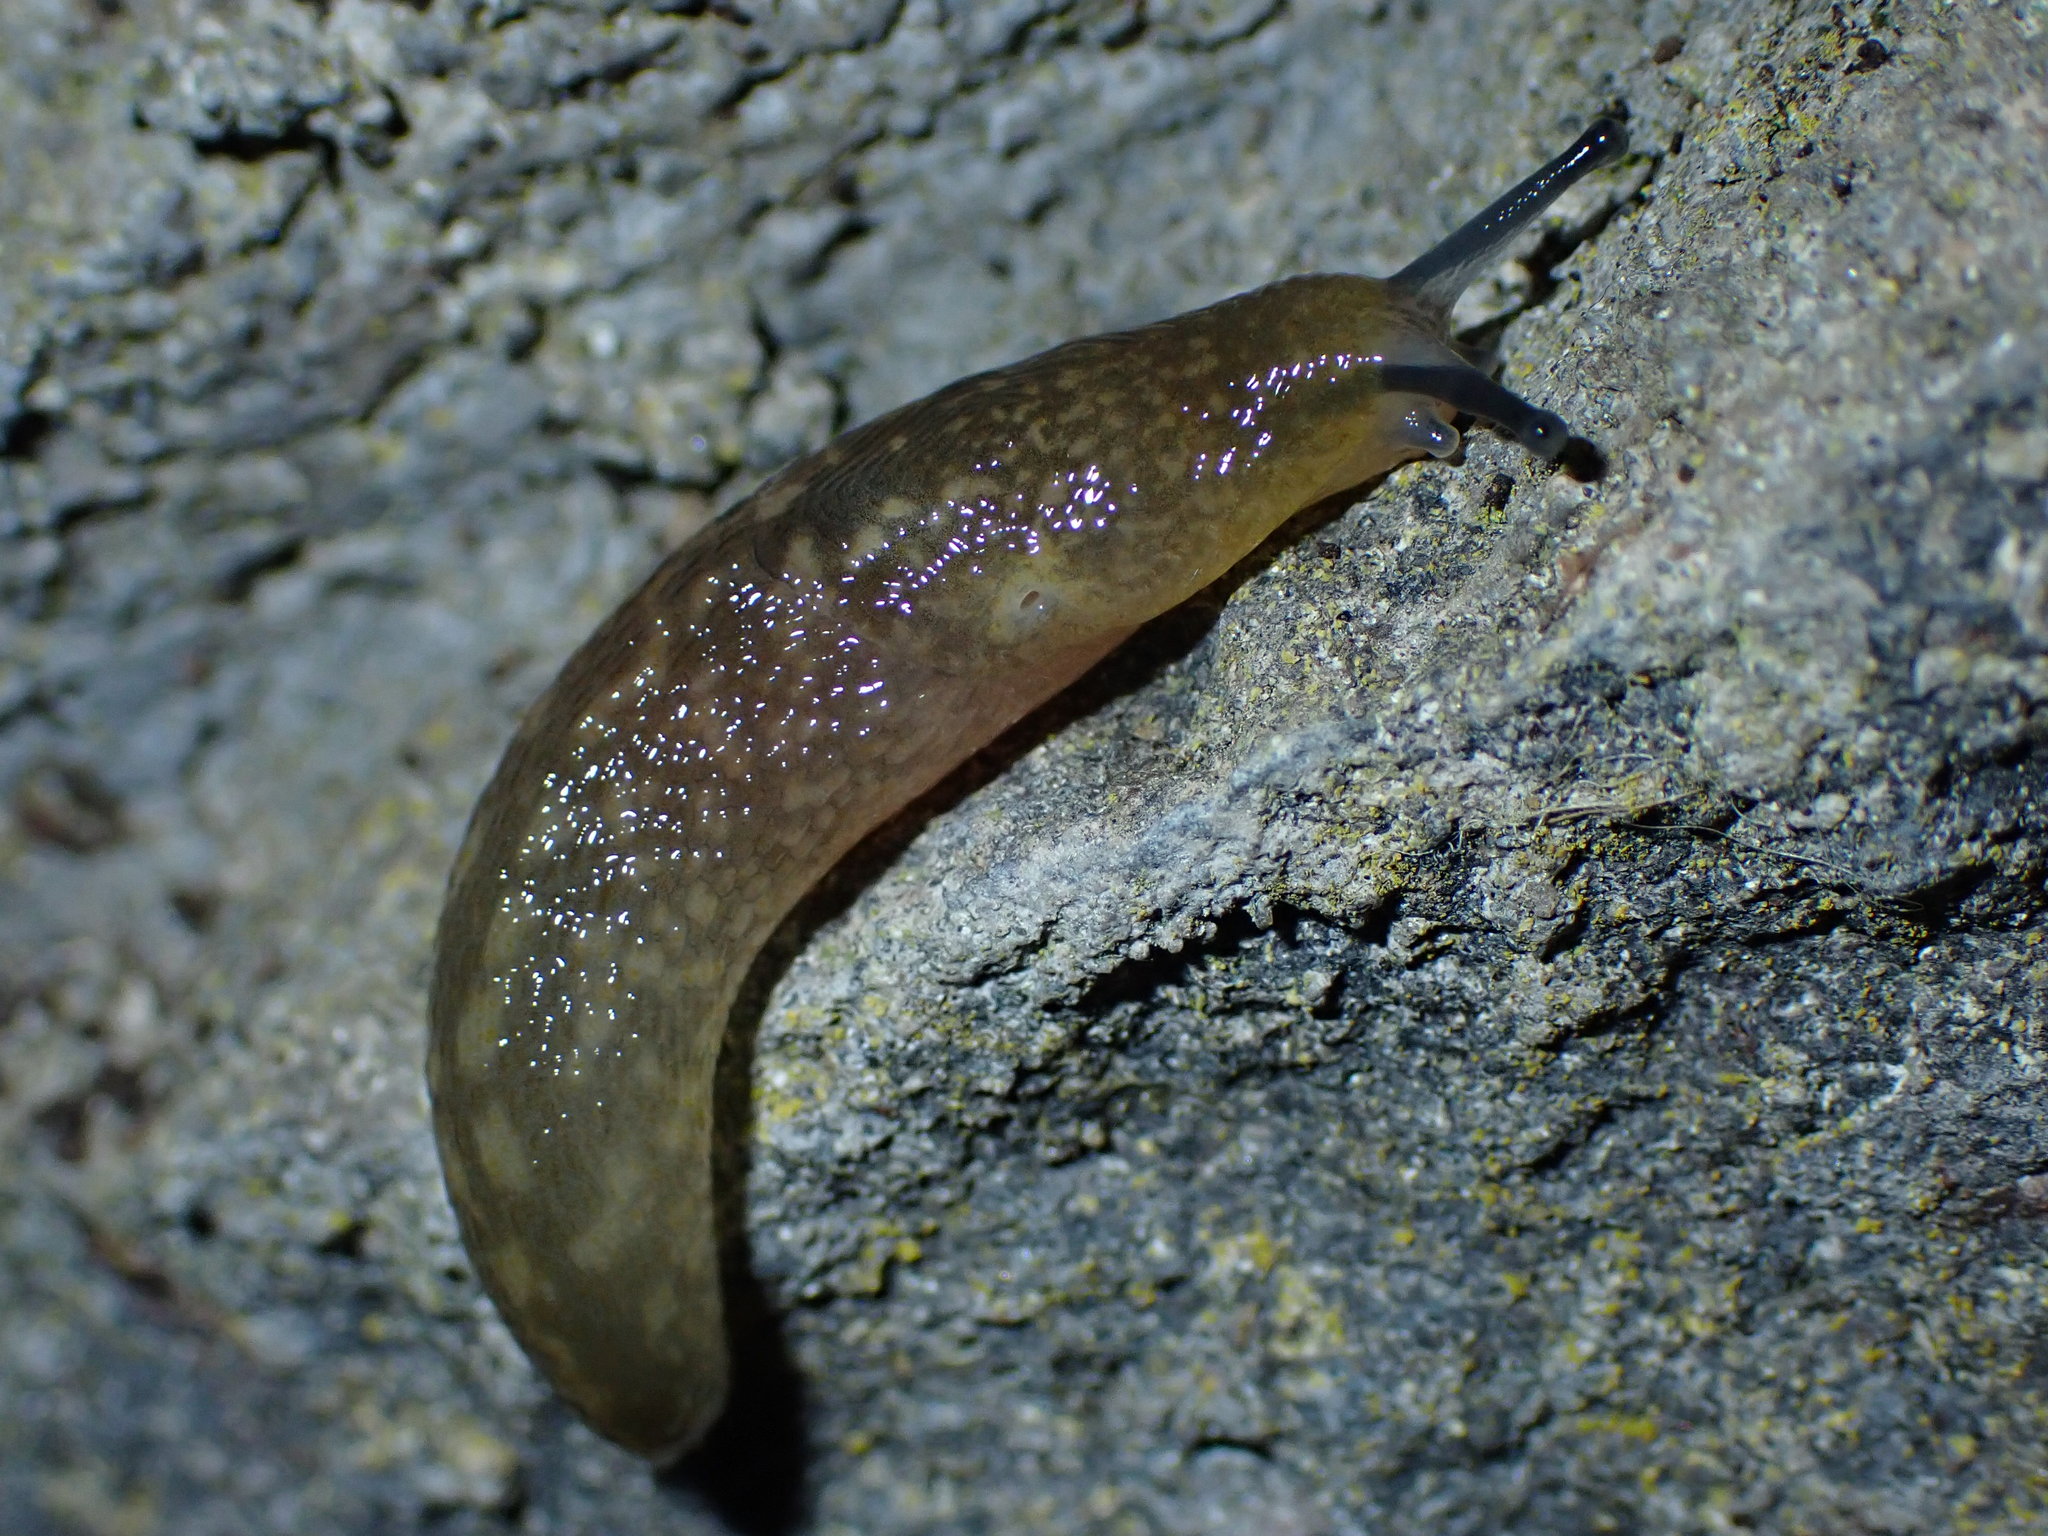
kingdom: Animalia
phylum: Mollusca
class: Gastropoda
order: Stylommatophora
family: Limacidae
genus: Limacus
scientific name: Limacus flavus
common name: Yellow gardenslug
